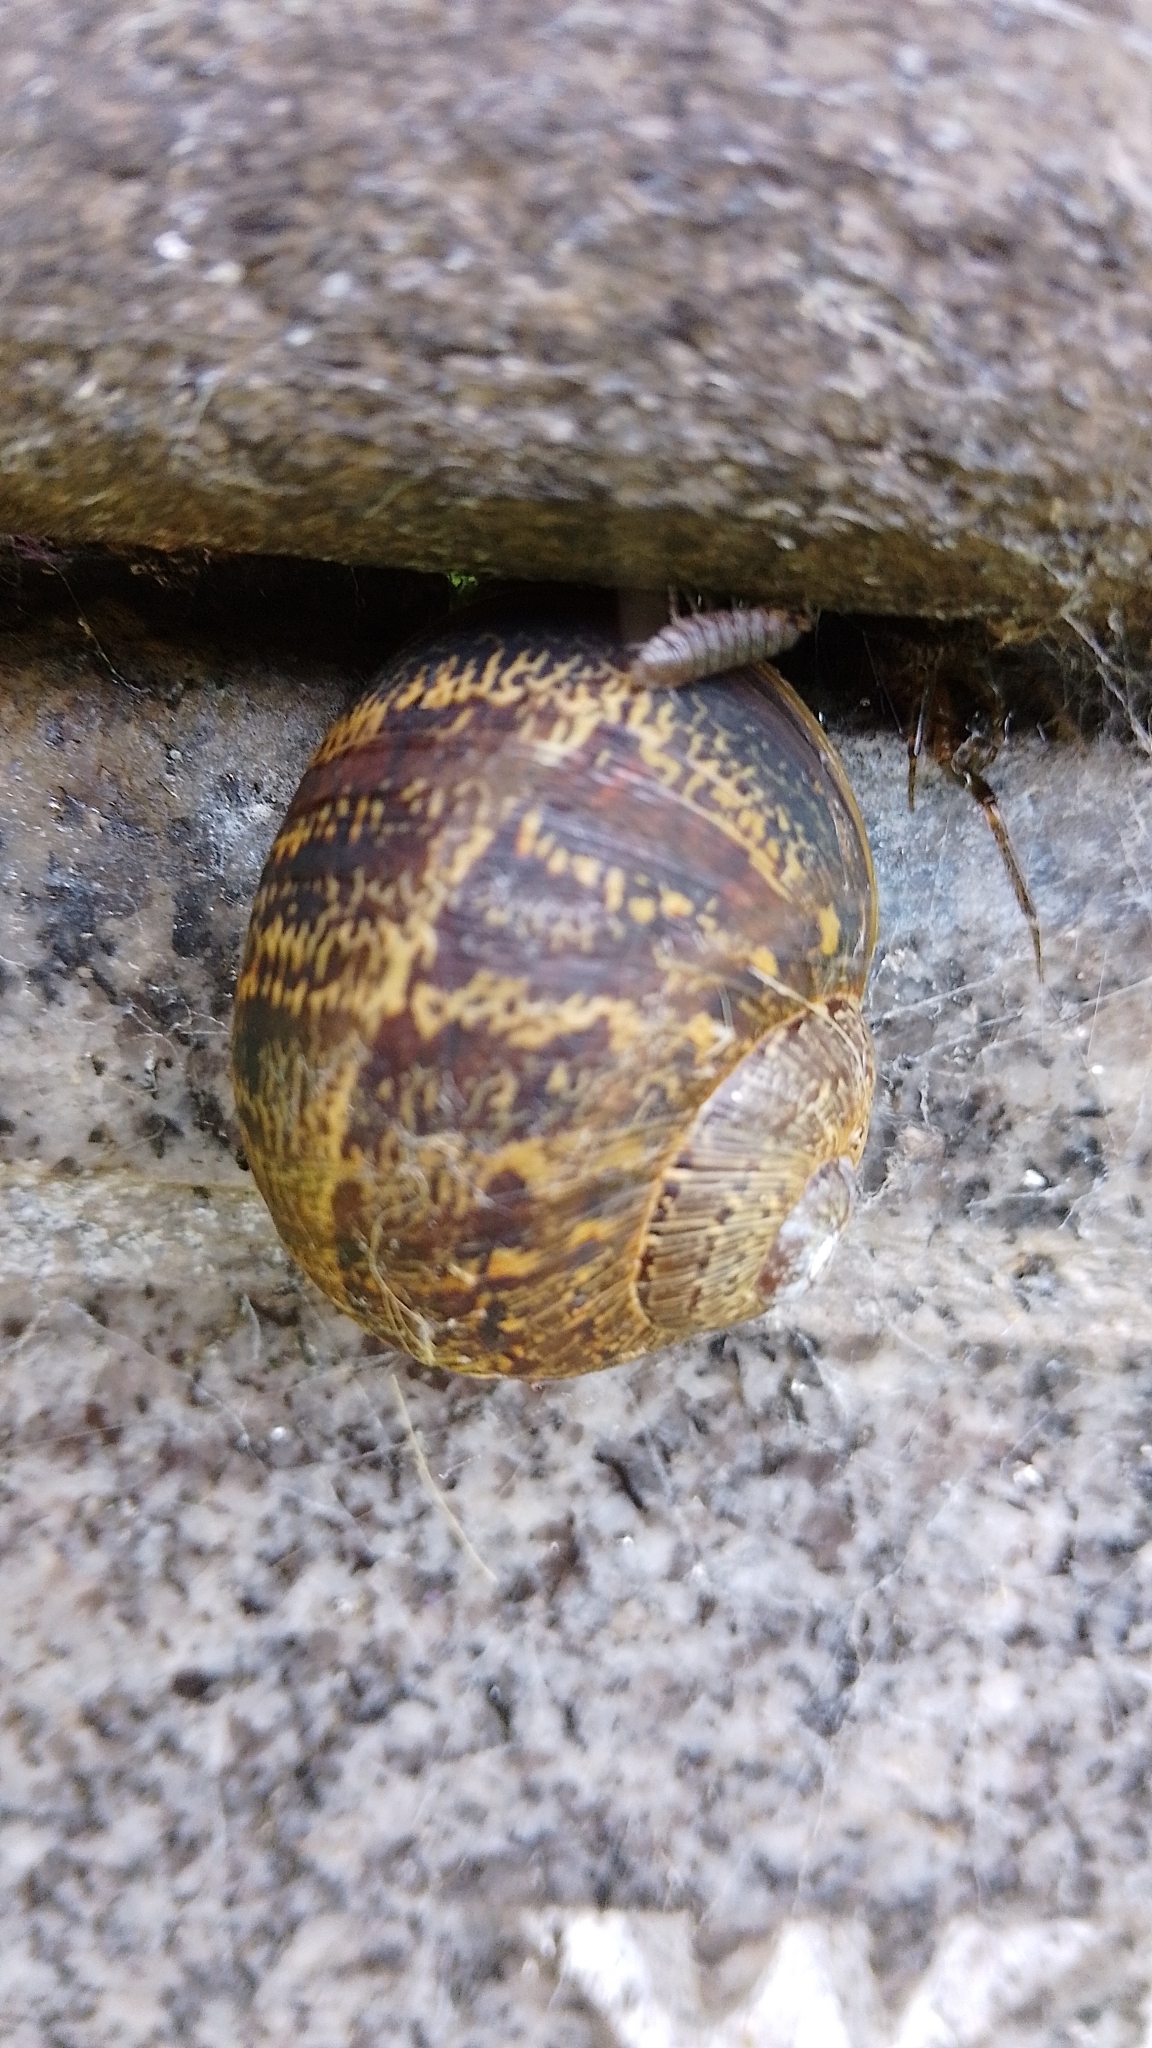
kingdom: Animalia
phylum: Mollusca
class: Gastropoda
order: Stylommatophora
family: Helicidae
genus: Cornu
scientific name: Cornu aspersum
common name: Brown garden snail
